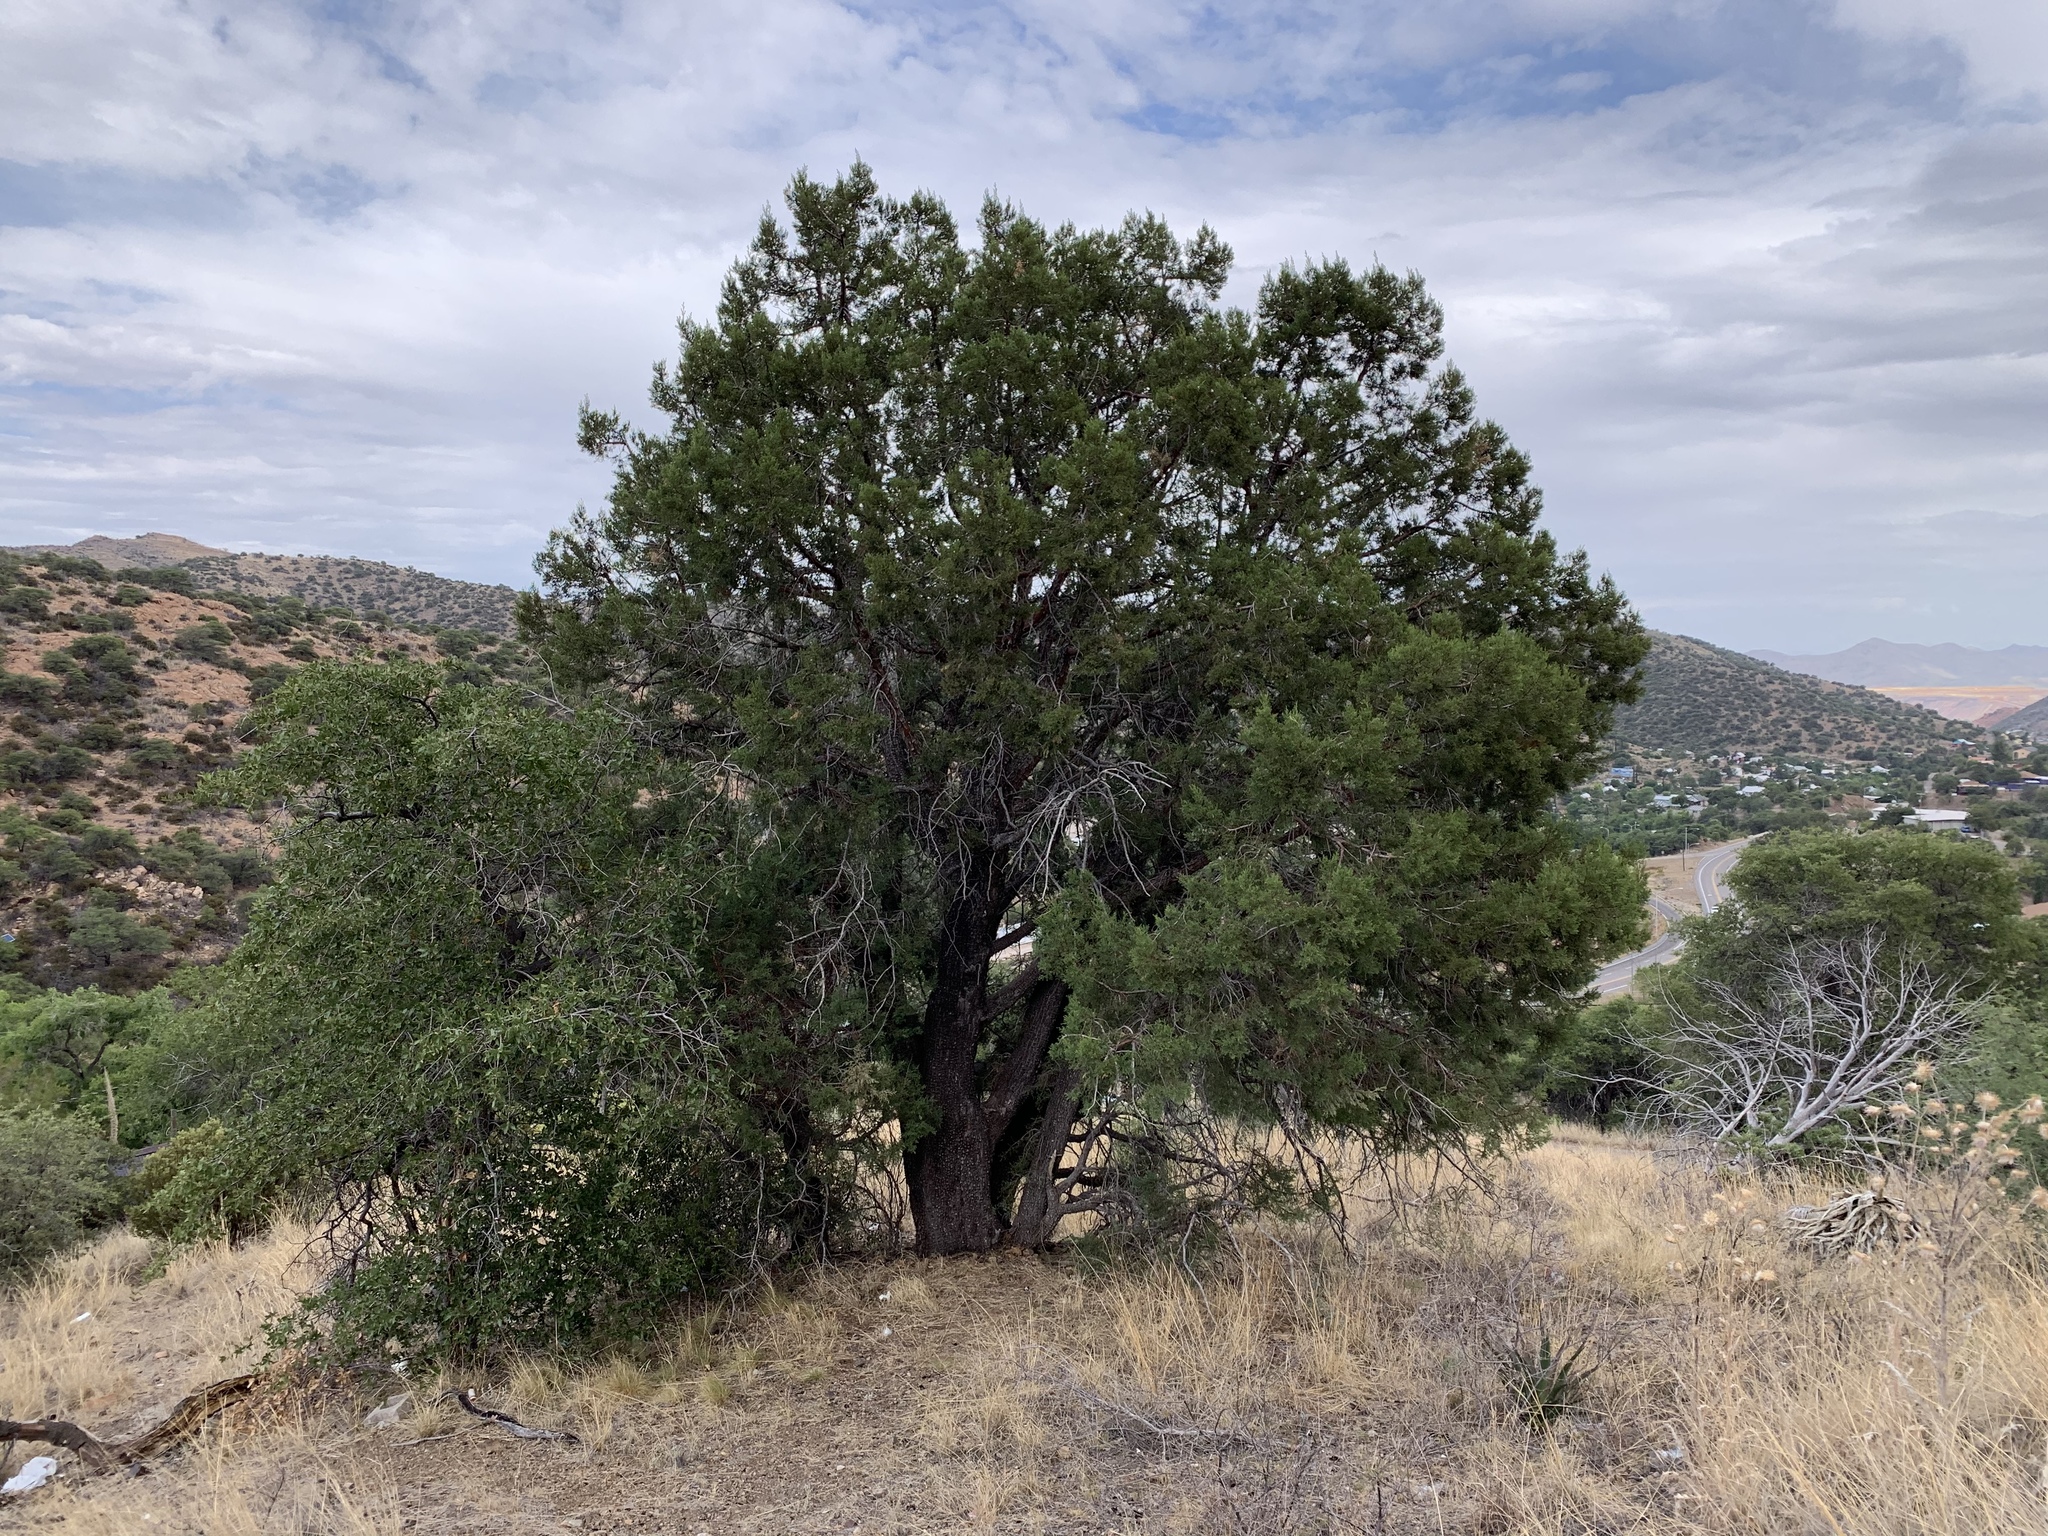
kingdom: Plantae
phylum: Tracheophyta
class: Pinopsida
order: Pinales
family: Cupressaceae
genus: Juniperus
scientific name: Juniperus deppeana
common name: Alligator juniper
